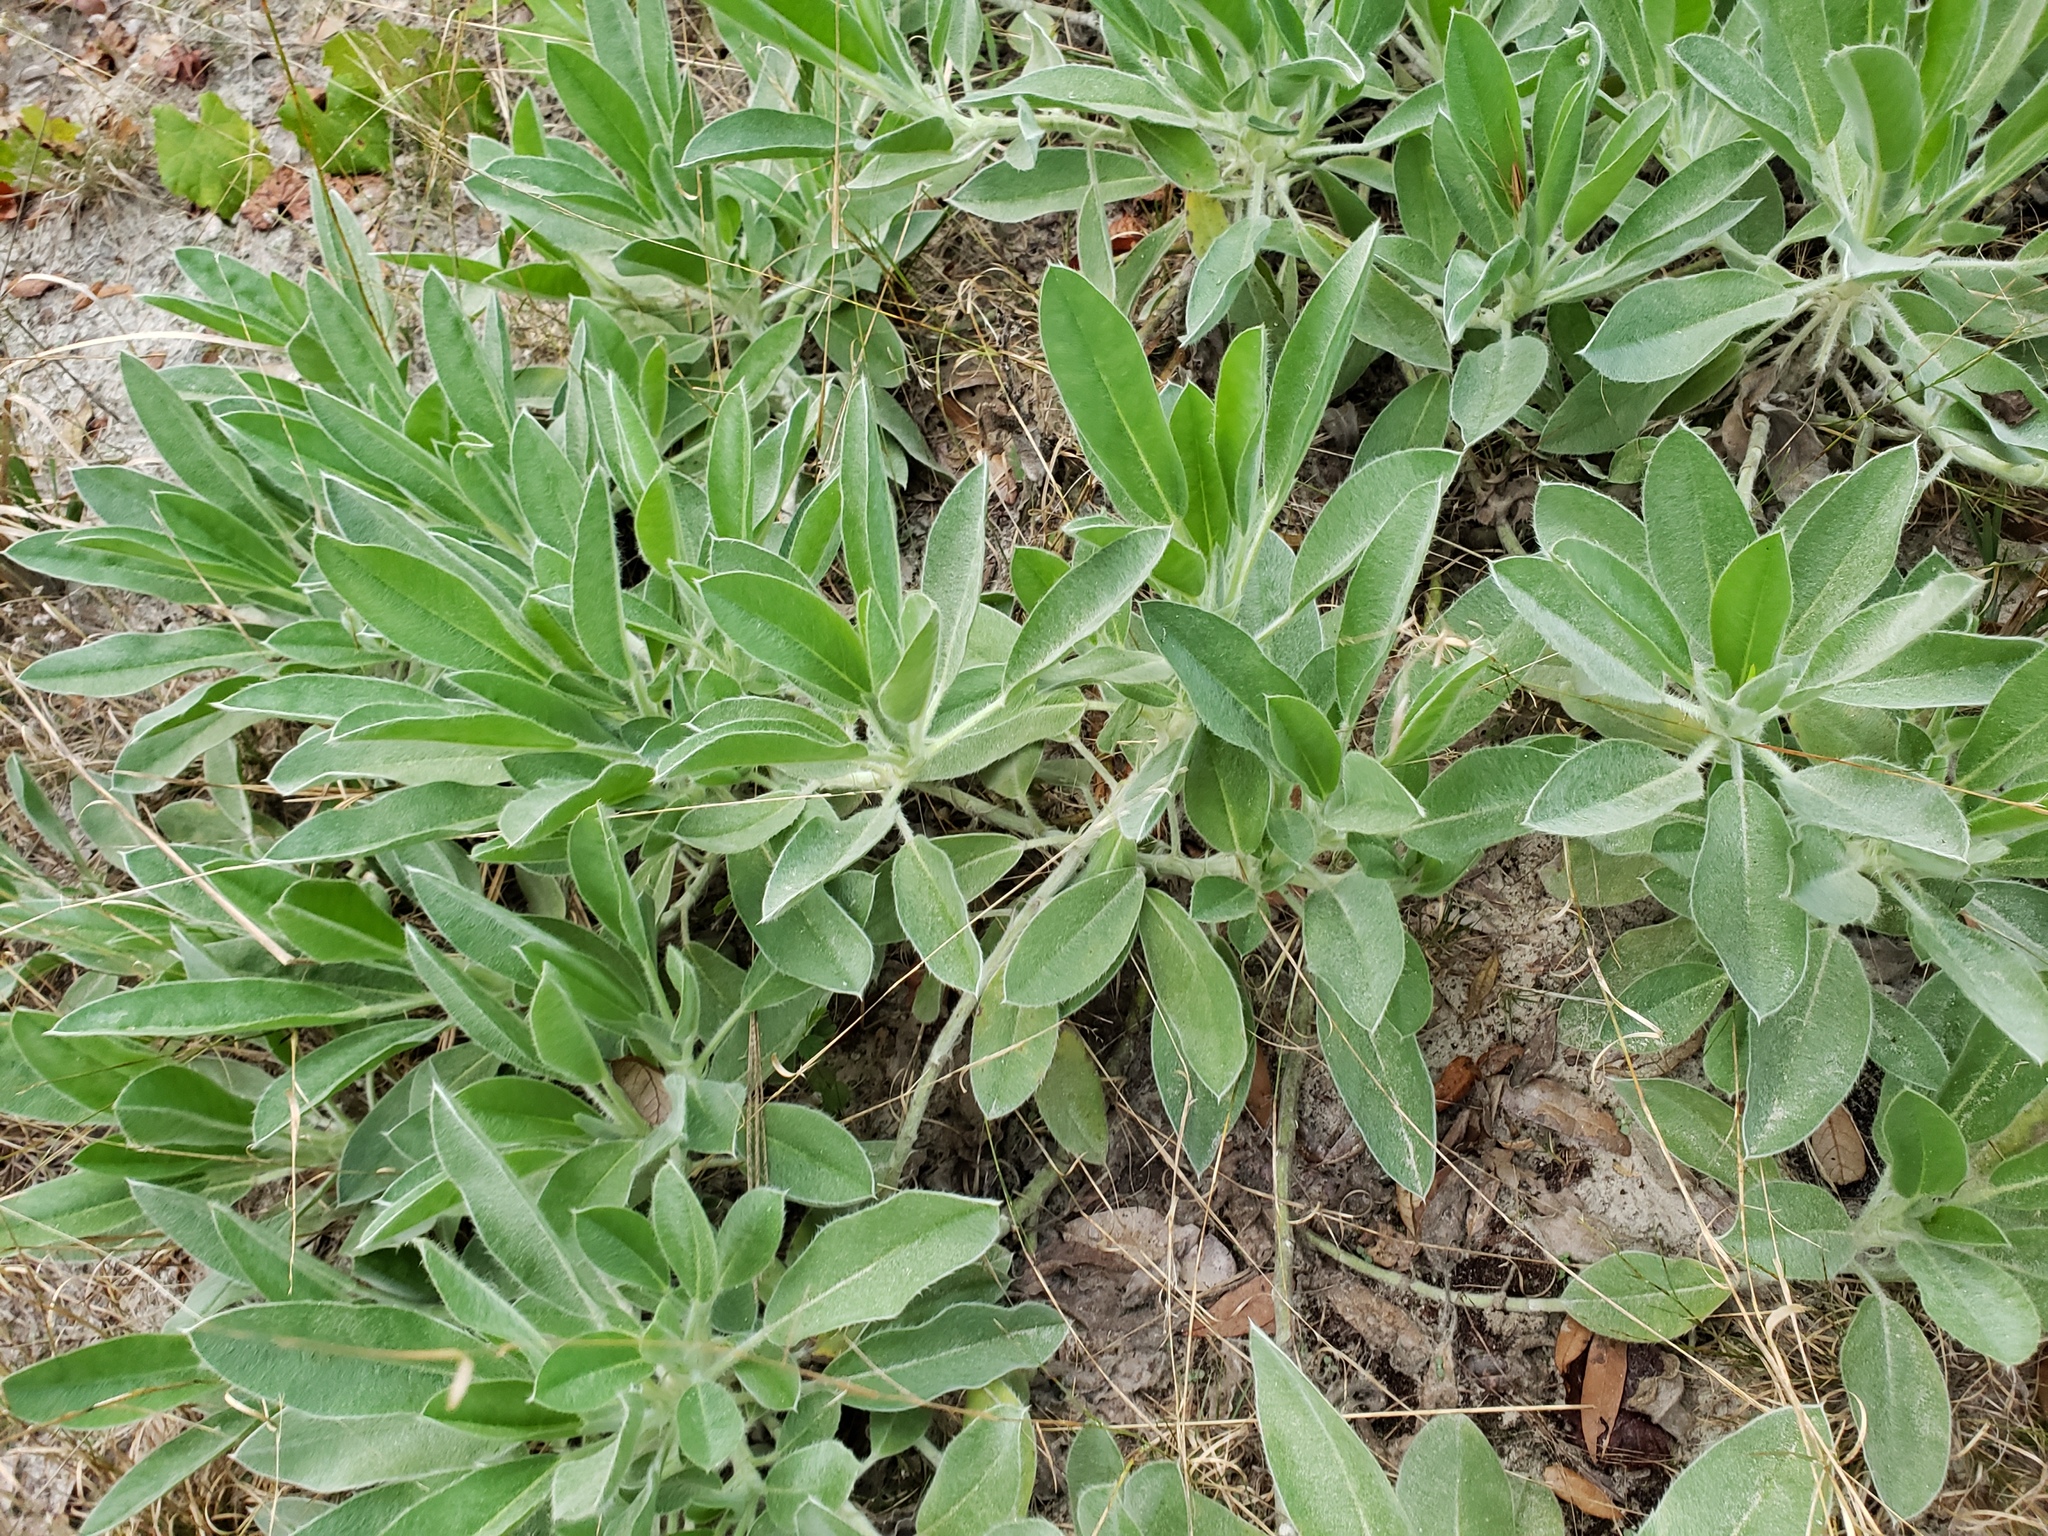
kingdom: Plantae
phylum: Tracheophyta
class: Magnoliopsida
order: Fabales
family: Fabaceae
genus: Lupinus
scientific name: Lupinus
